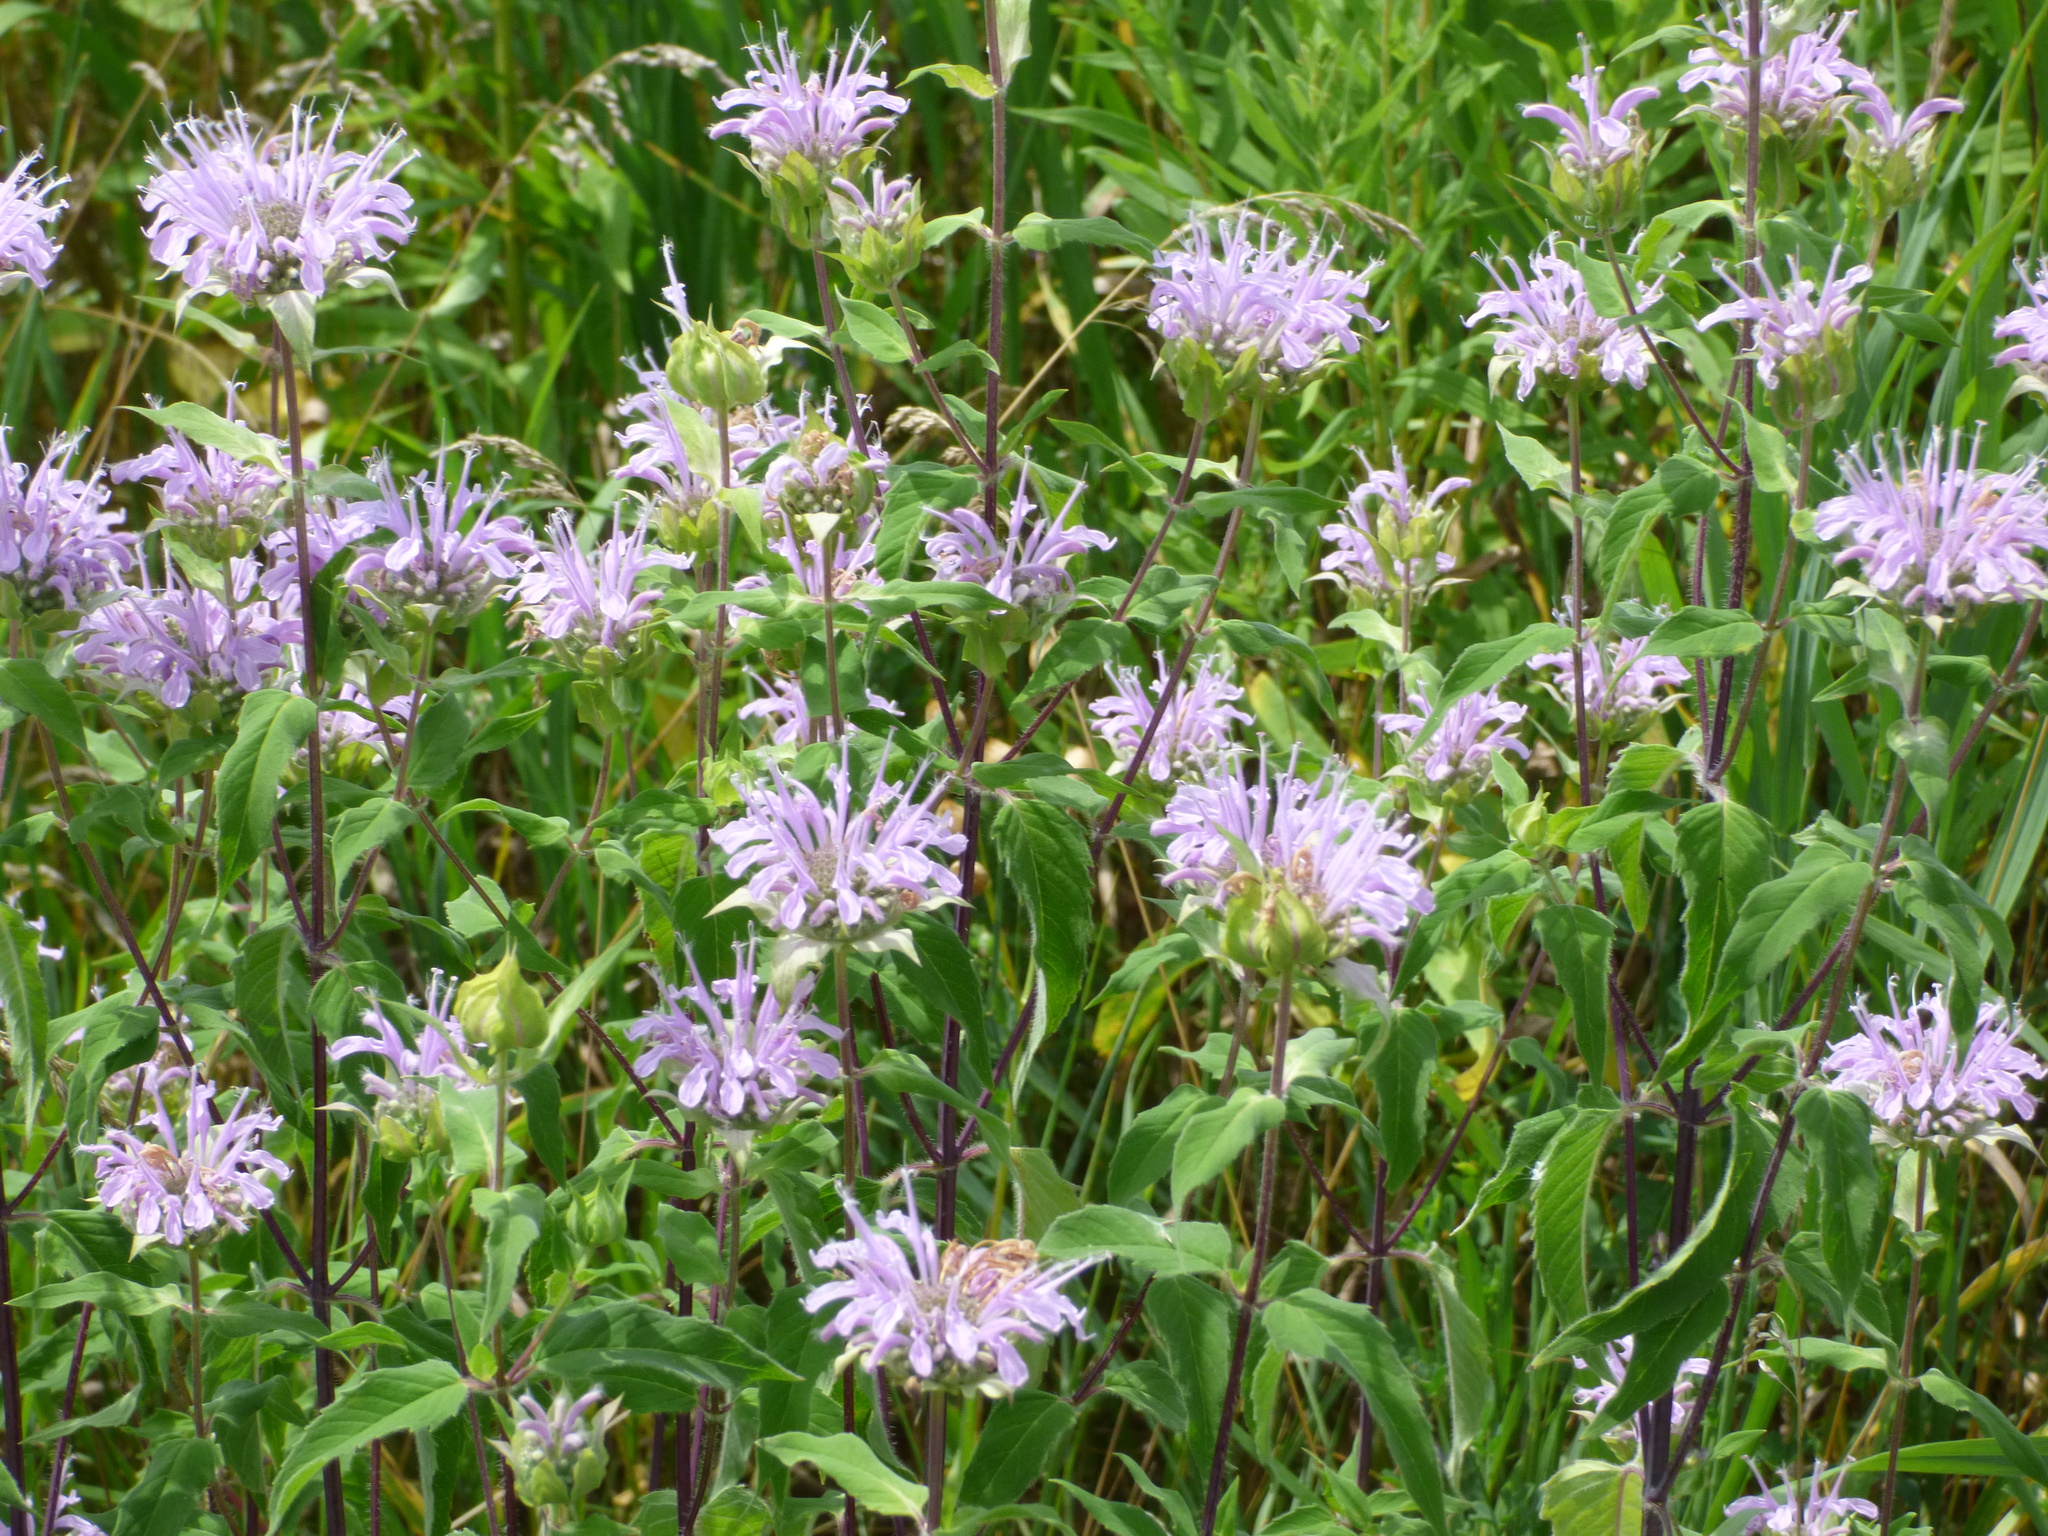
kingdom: Plantae
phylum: Tracheophyta
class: Magnoliopsida
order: Lamiales
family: Lamiaceae
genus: Monarda
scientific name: Monarda fistulosa
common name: Purple beebalm
